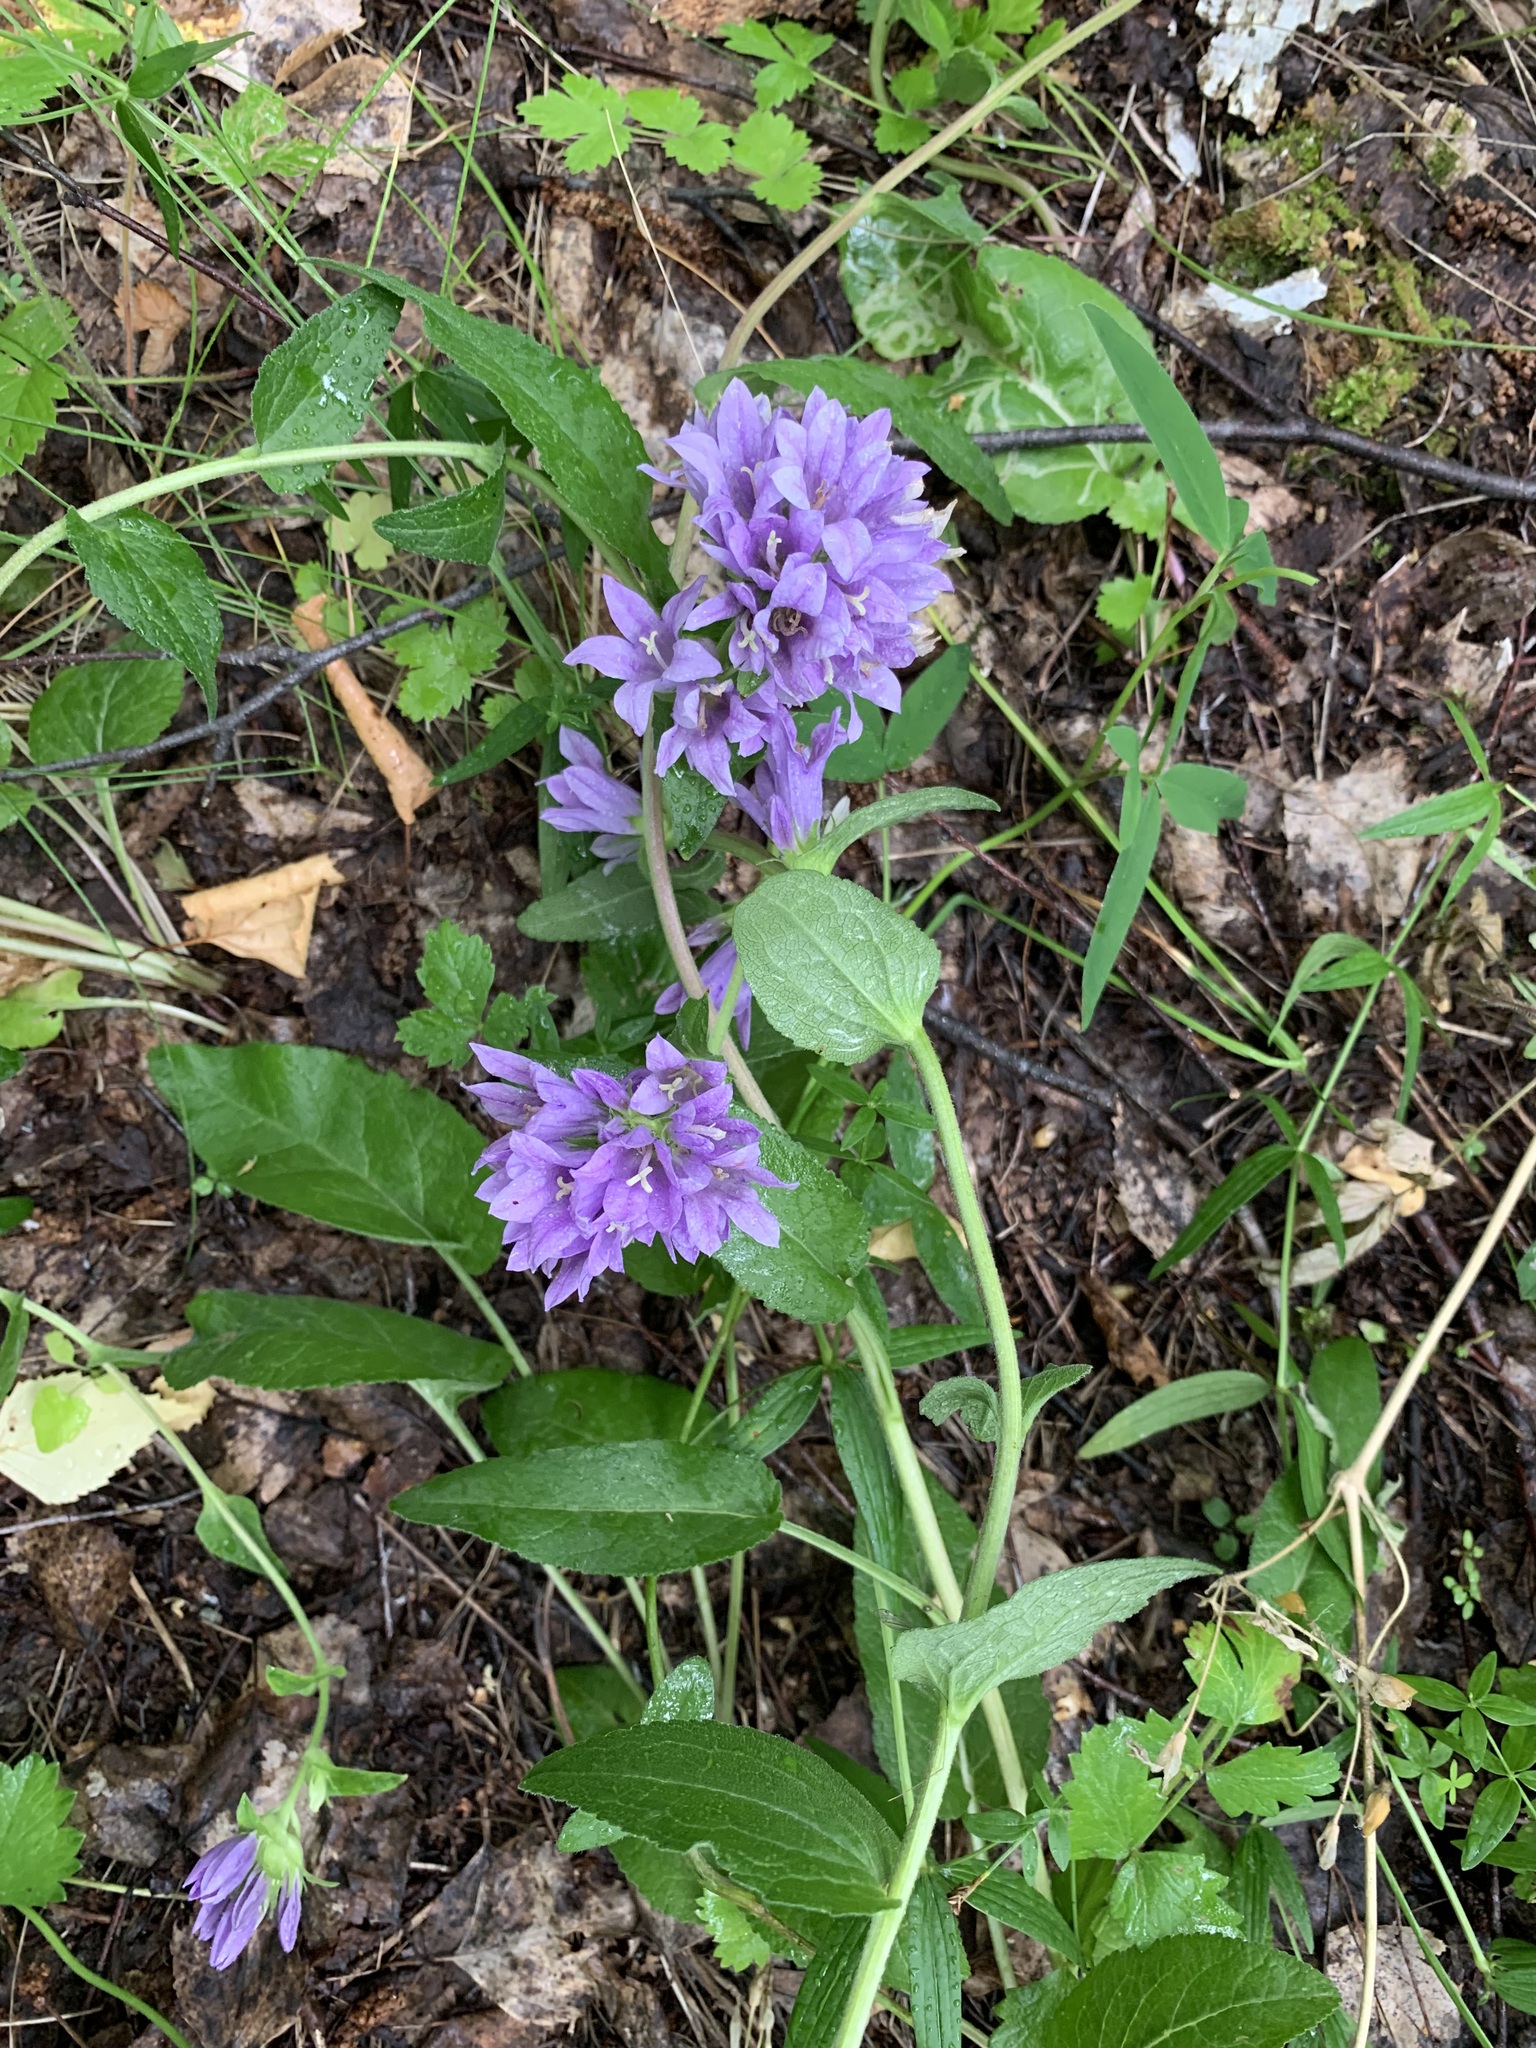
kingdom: Plantae
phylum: Tracheophyta
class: Magnoliopsida
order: Asterales
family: Campanulaceae
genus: Campanula
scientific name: Campanula glomerata
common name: Clustered bellflower
